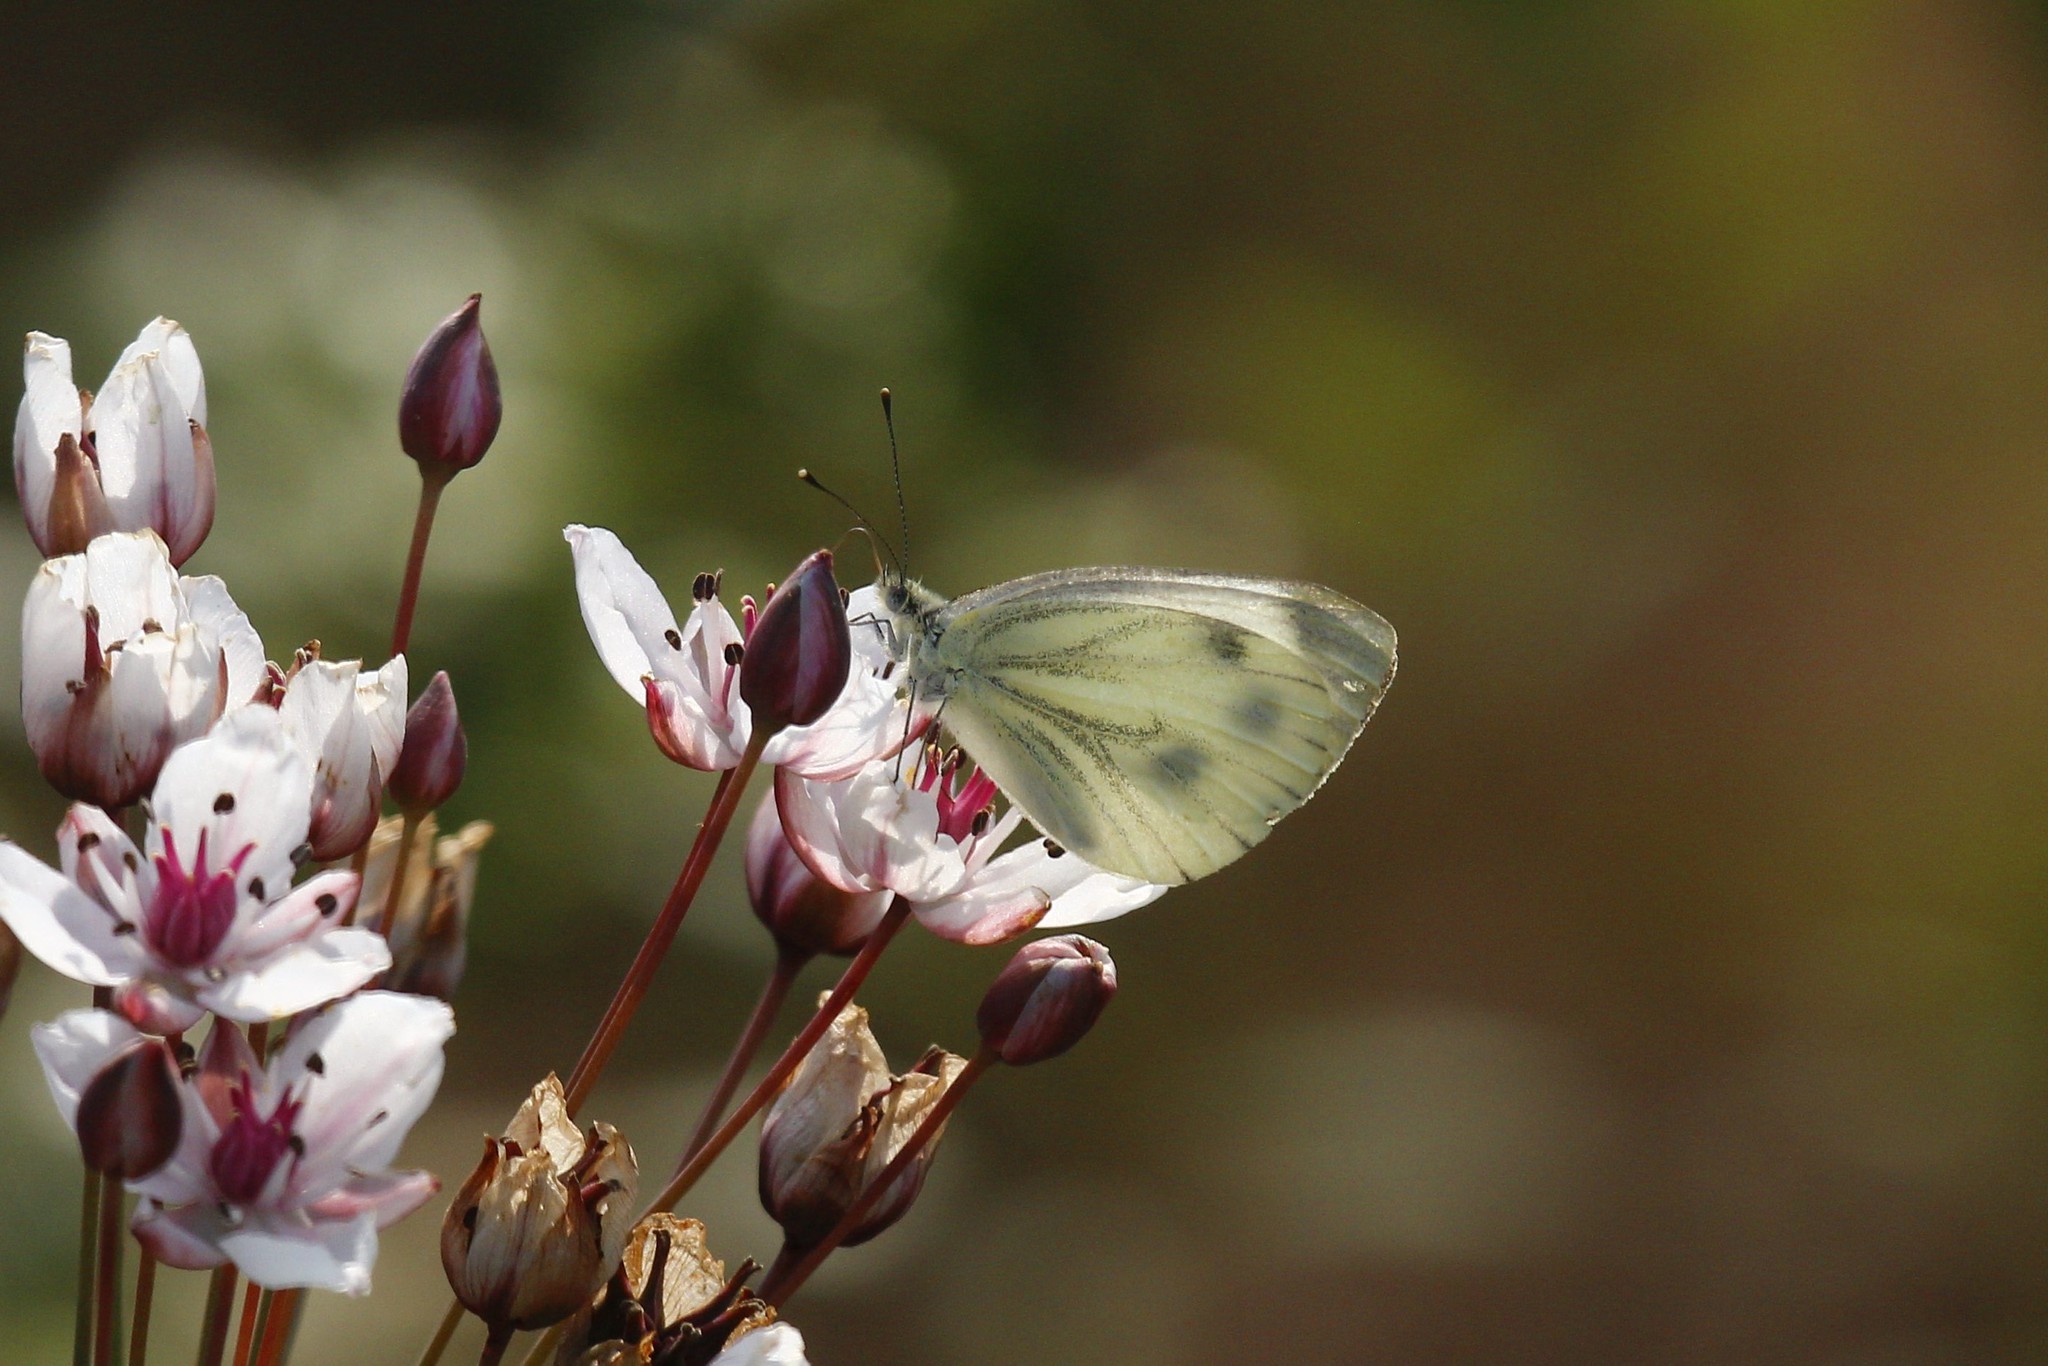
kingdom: Animalia
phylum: Arthropoda
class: Insecta
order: Lepidoptera
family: Pieridae
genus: Pieris
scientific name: Pieris napi
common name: Green-veined white
